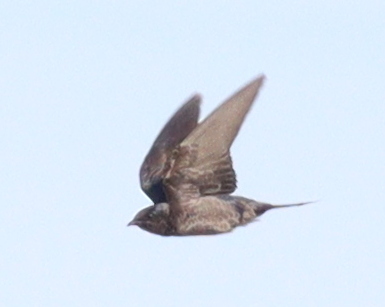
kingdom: Animalia
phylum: Chordata
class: Aves
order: Passeriformes
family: Hirundinidae
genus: Progne
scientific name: Progne elegans
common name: Southern martin
